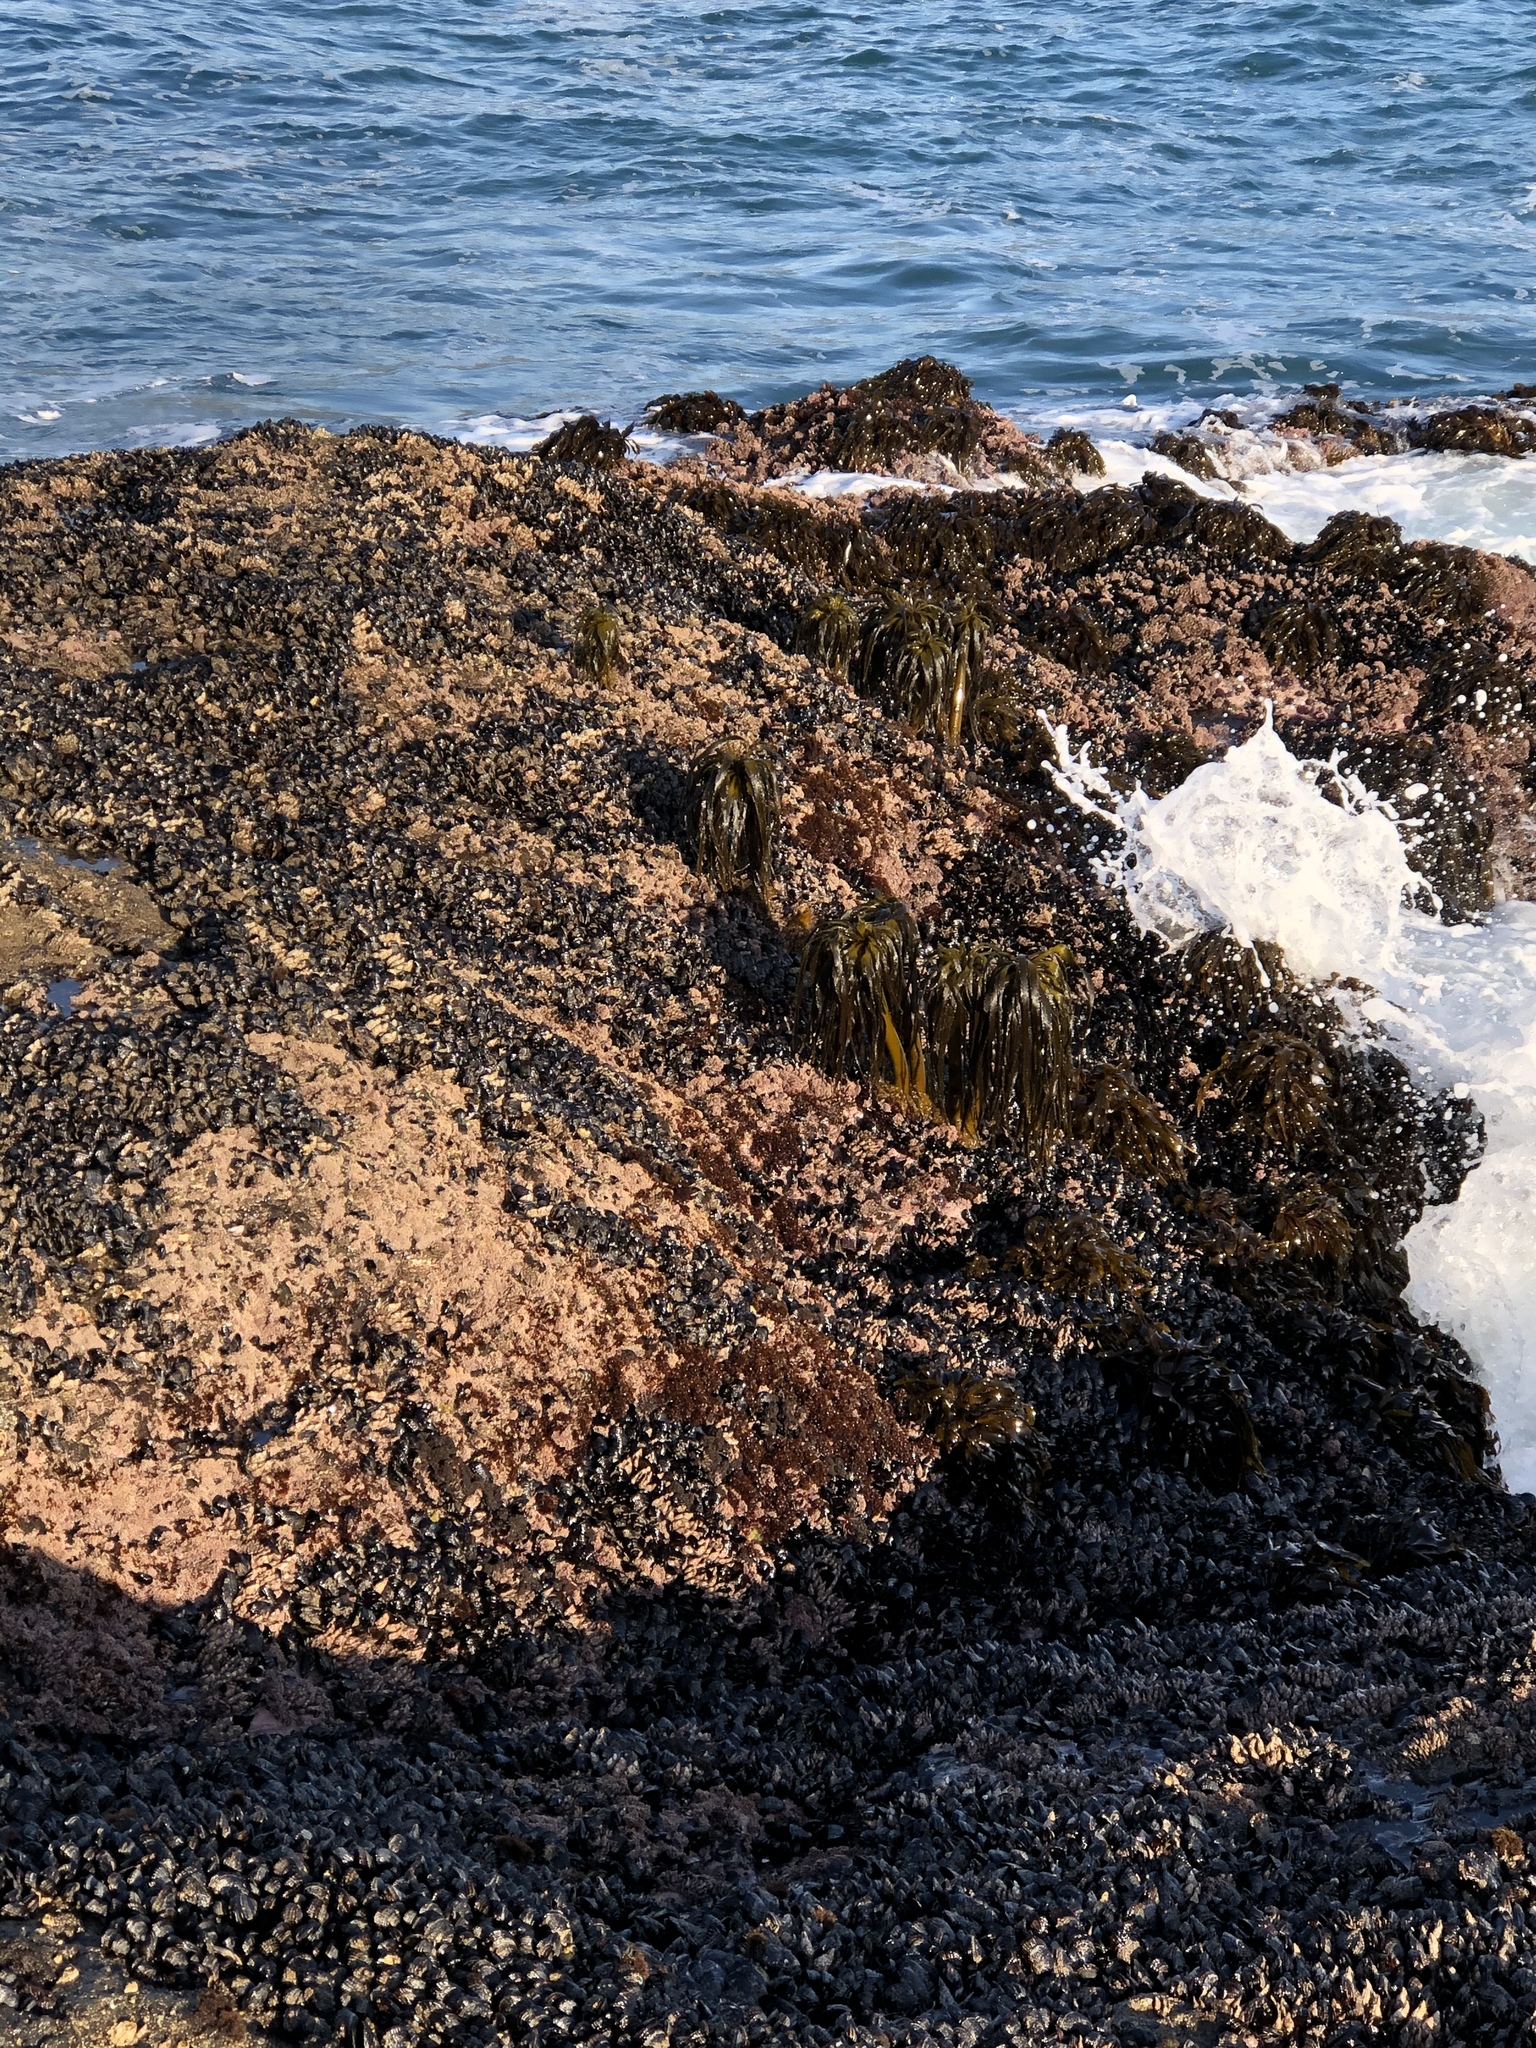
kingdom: Chromista
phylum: Ochrophyta
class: Phaeophyceae
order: Laminariales
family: Laminariaceae
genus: Postelsia
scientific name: Postelsia palmiformis
